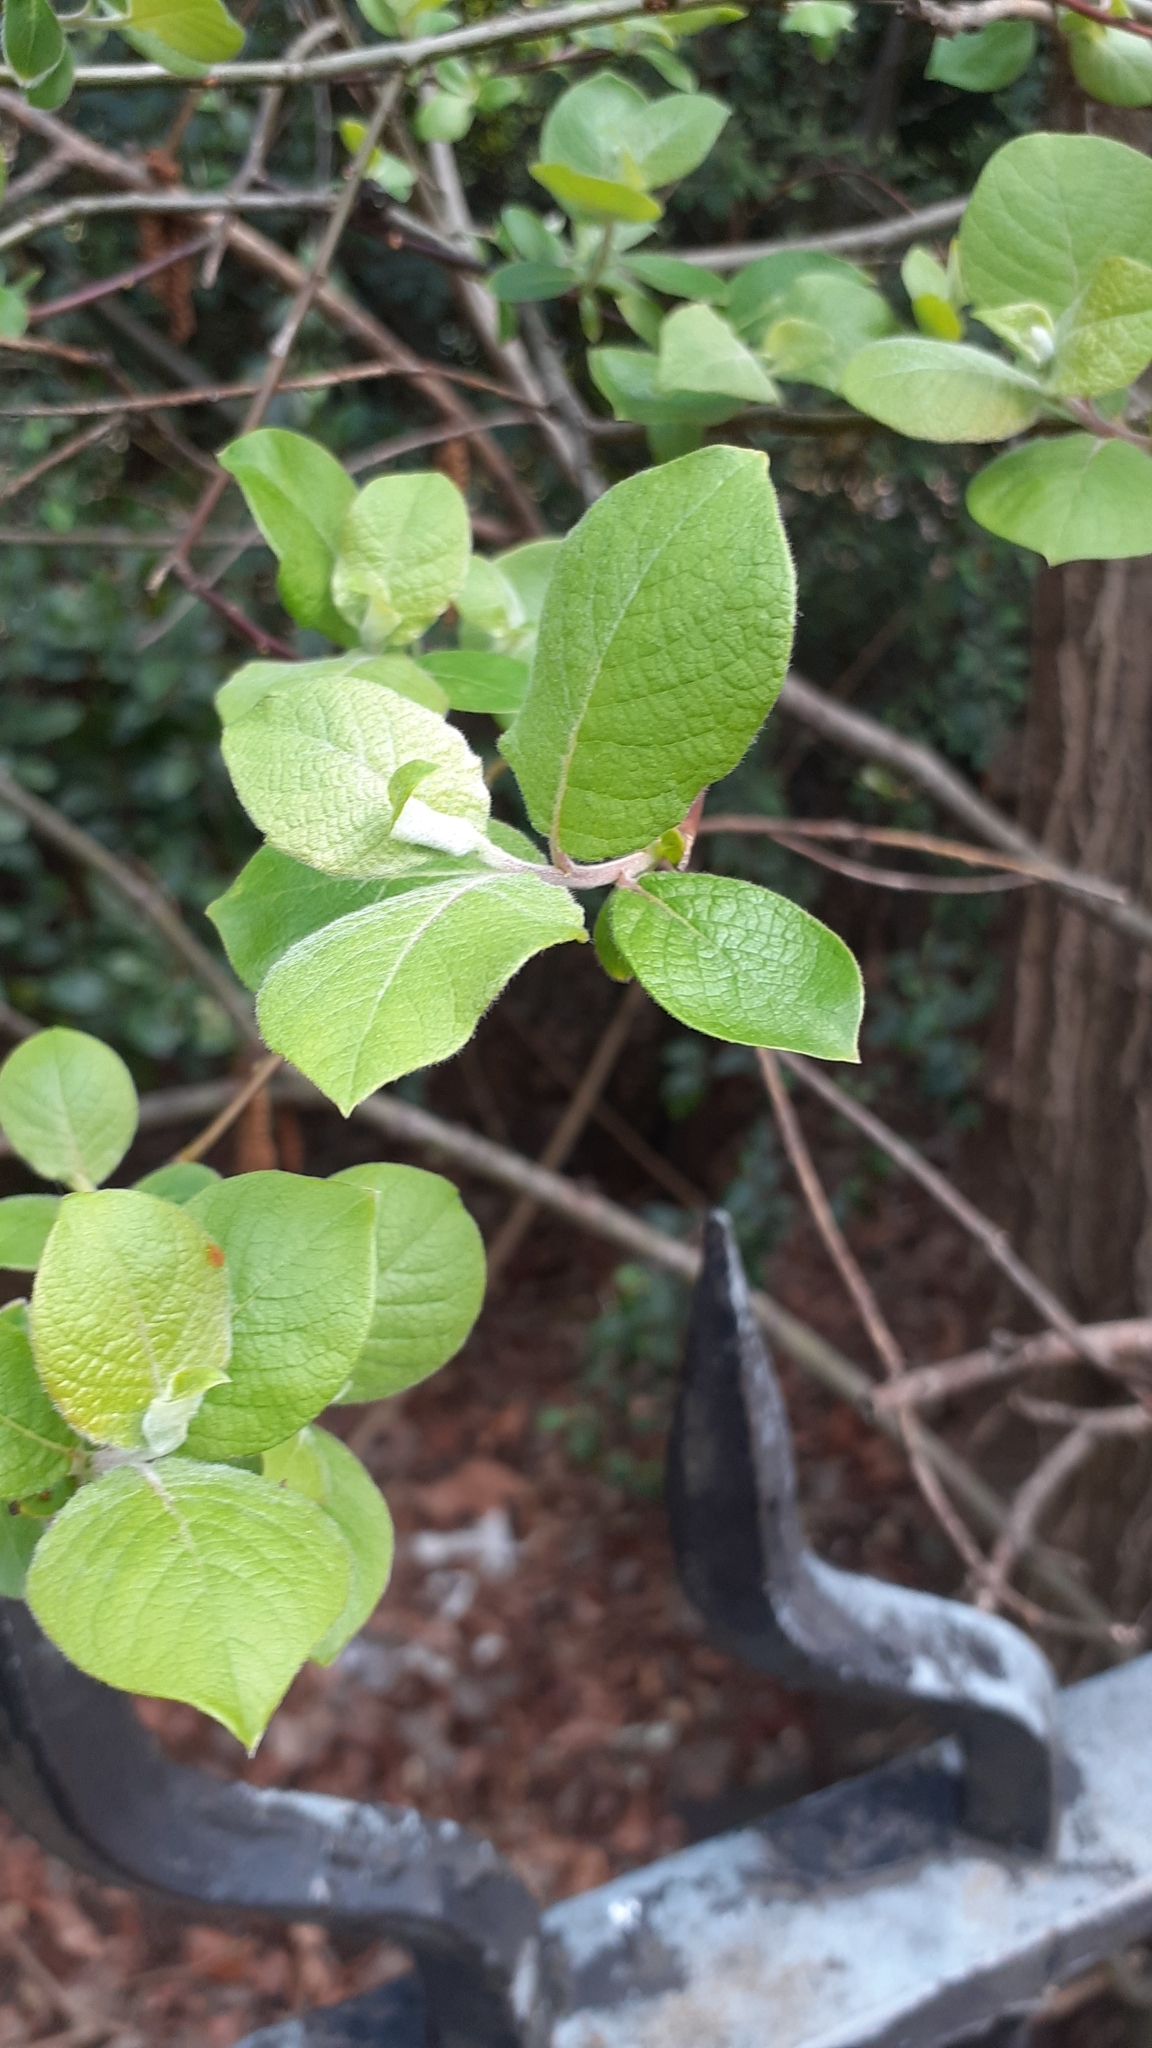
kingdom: Plantae
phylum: Tracheophyta
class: Magnoliopsida
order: Malpighiales
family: Salicaceae
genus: Salix
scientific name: Salix caprea
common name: Goat willow
